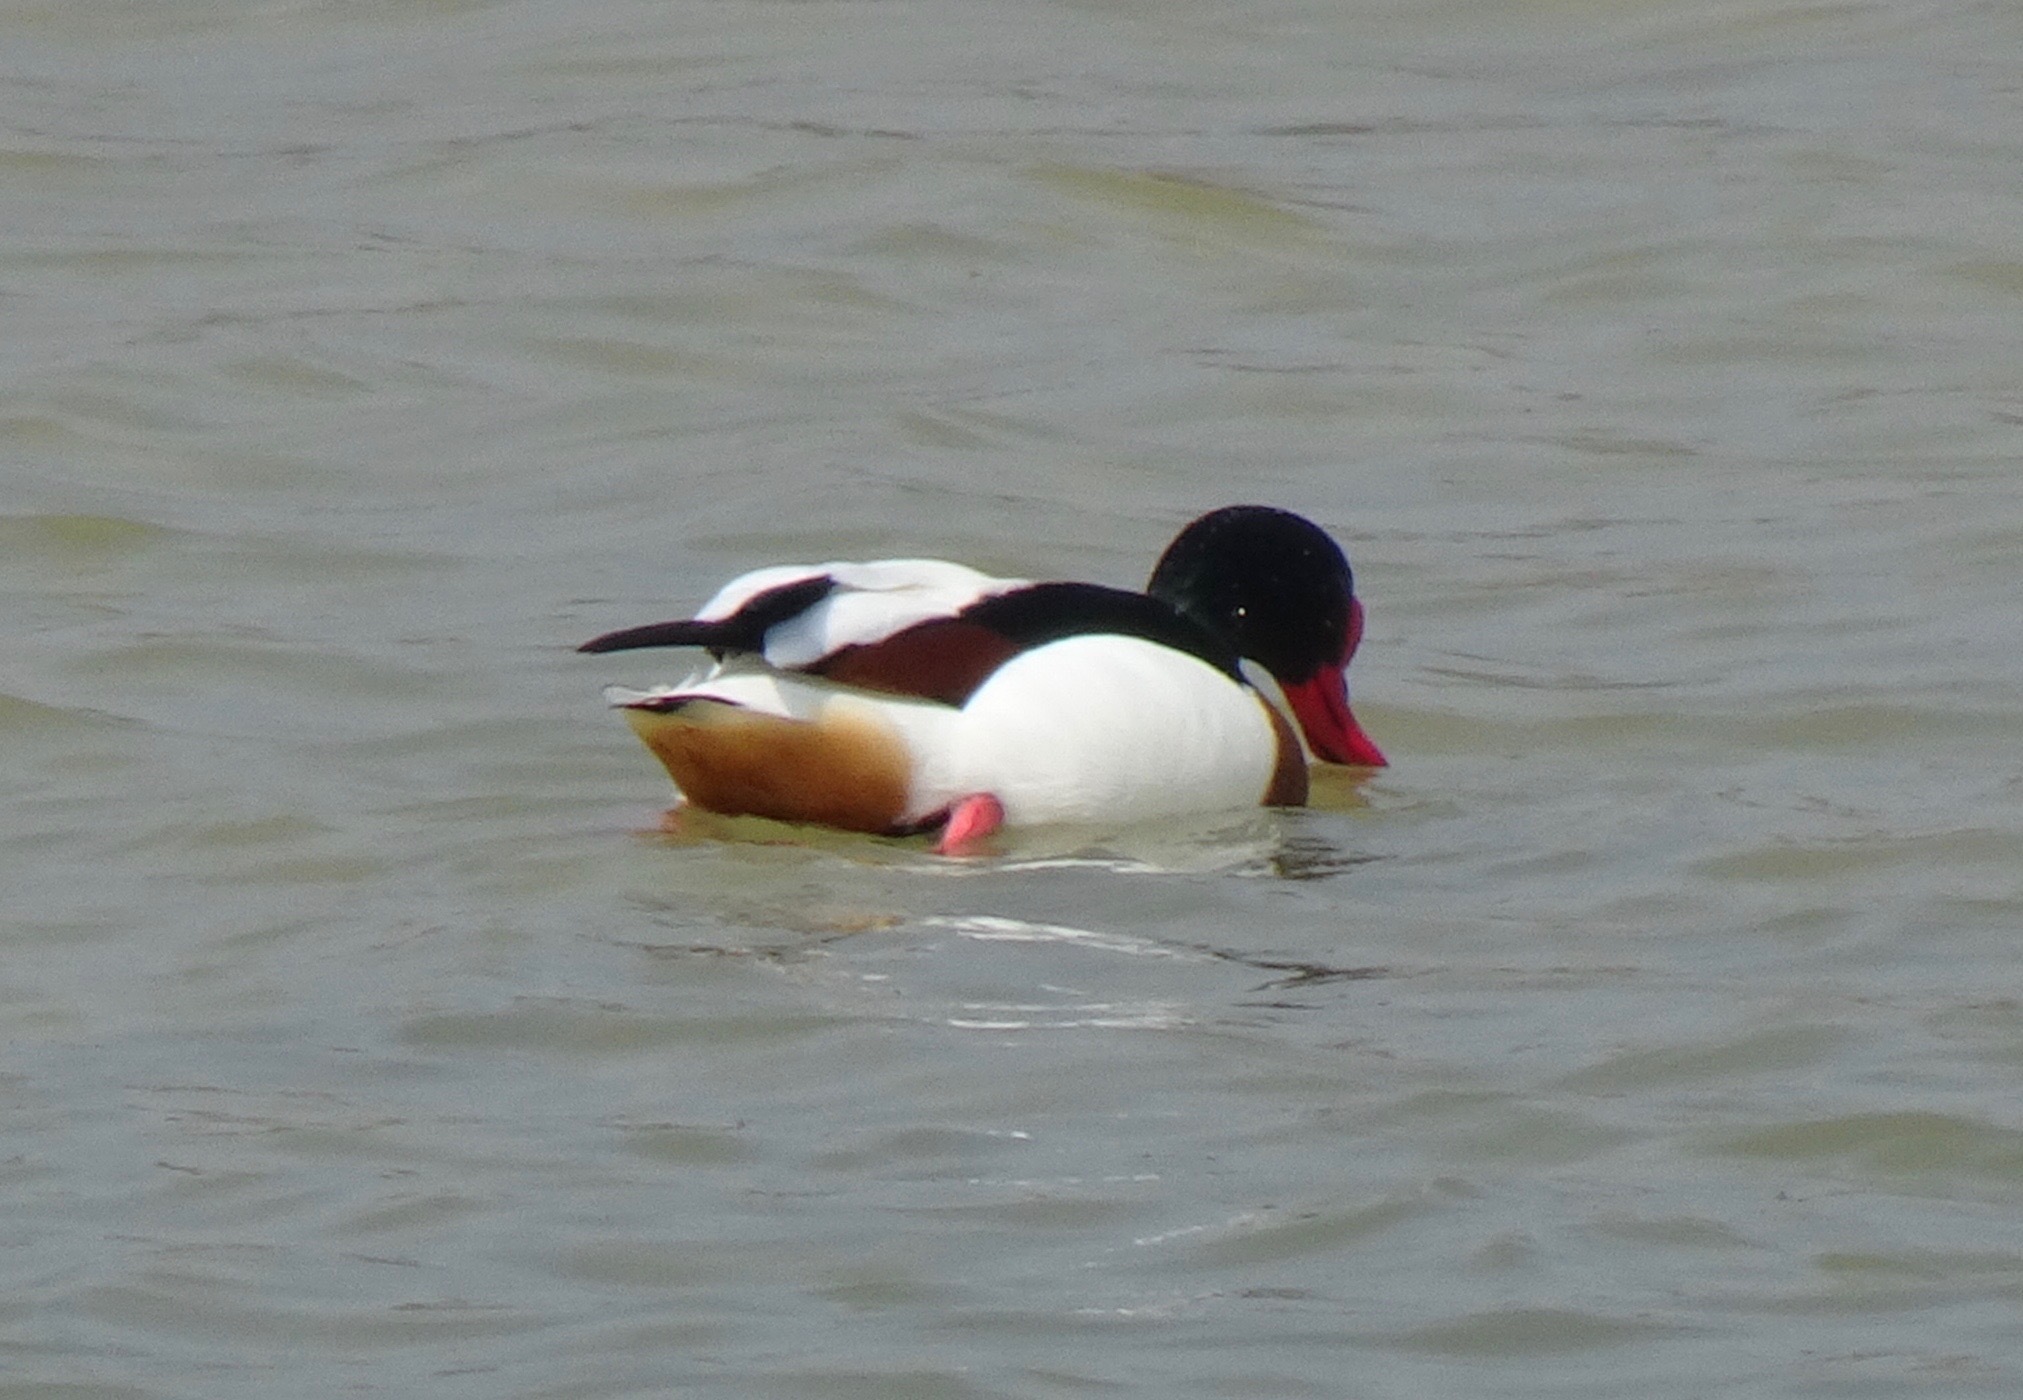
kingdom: Animalia
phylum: Chordata
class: Aves
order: Anseriformes
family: Anatidae
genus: Tadorna
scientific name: Tadorna tadorna
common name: Common shelduck
